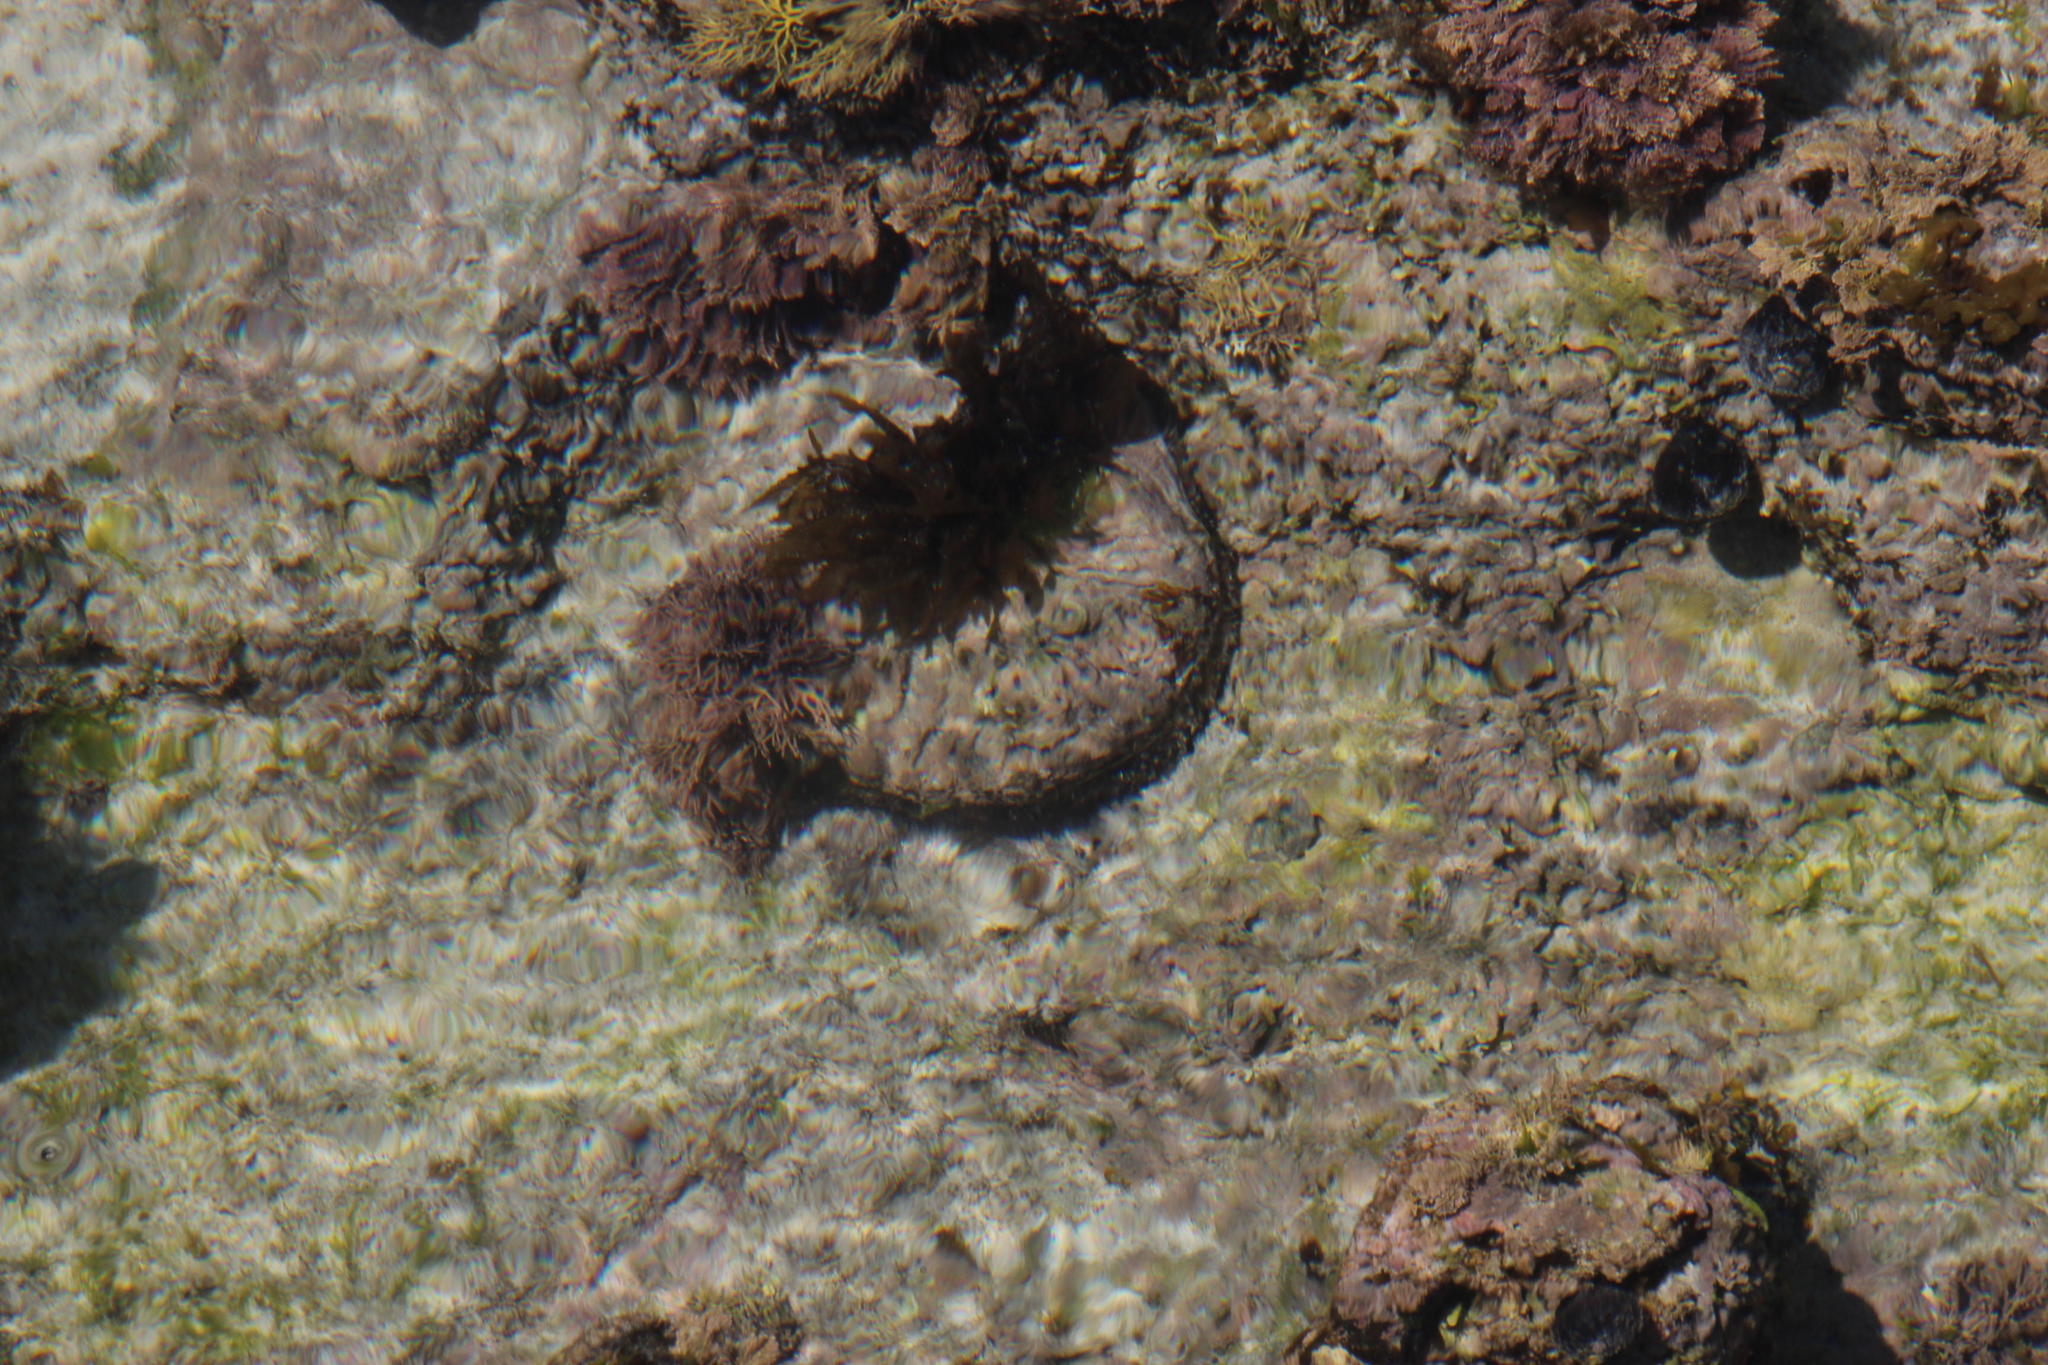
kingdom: Animalia
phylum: Mollusca
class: Gastropoda
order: Lepetellida
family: Haliotidae
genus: Haliotis
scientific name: Haliotis midae
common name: Perlemoen
